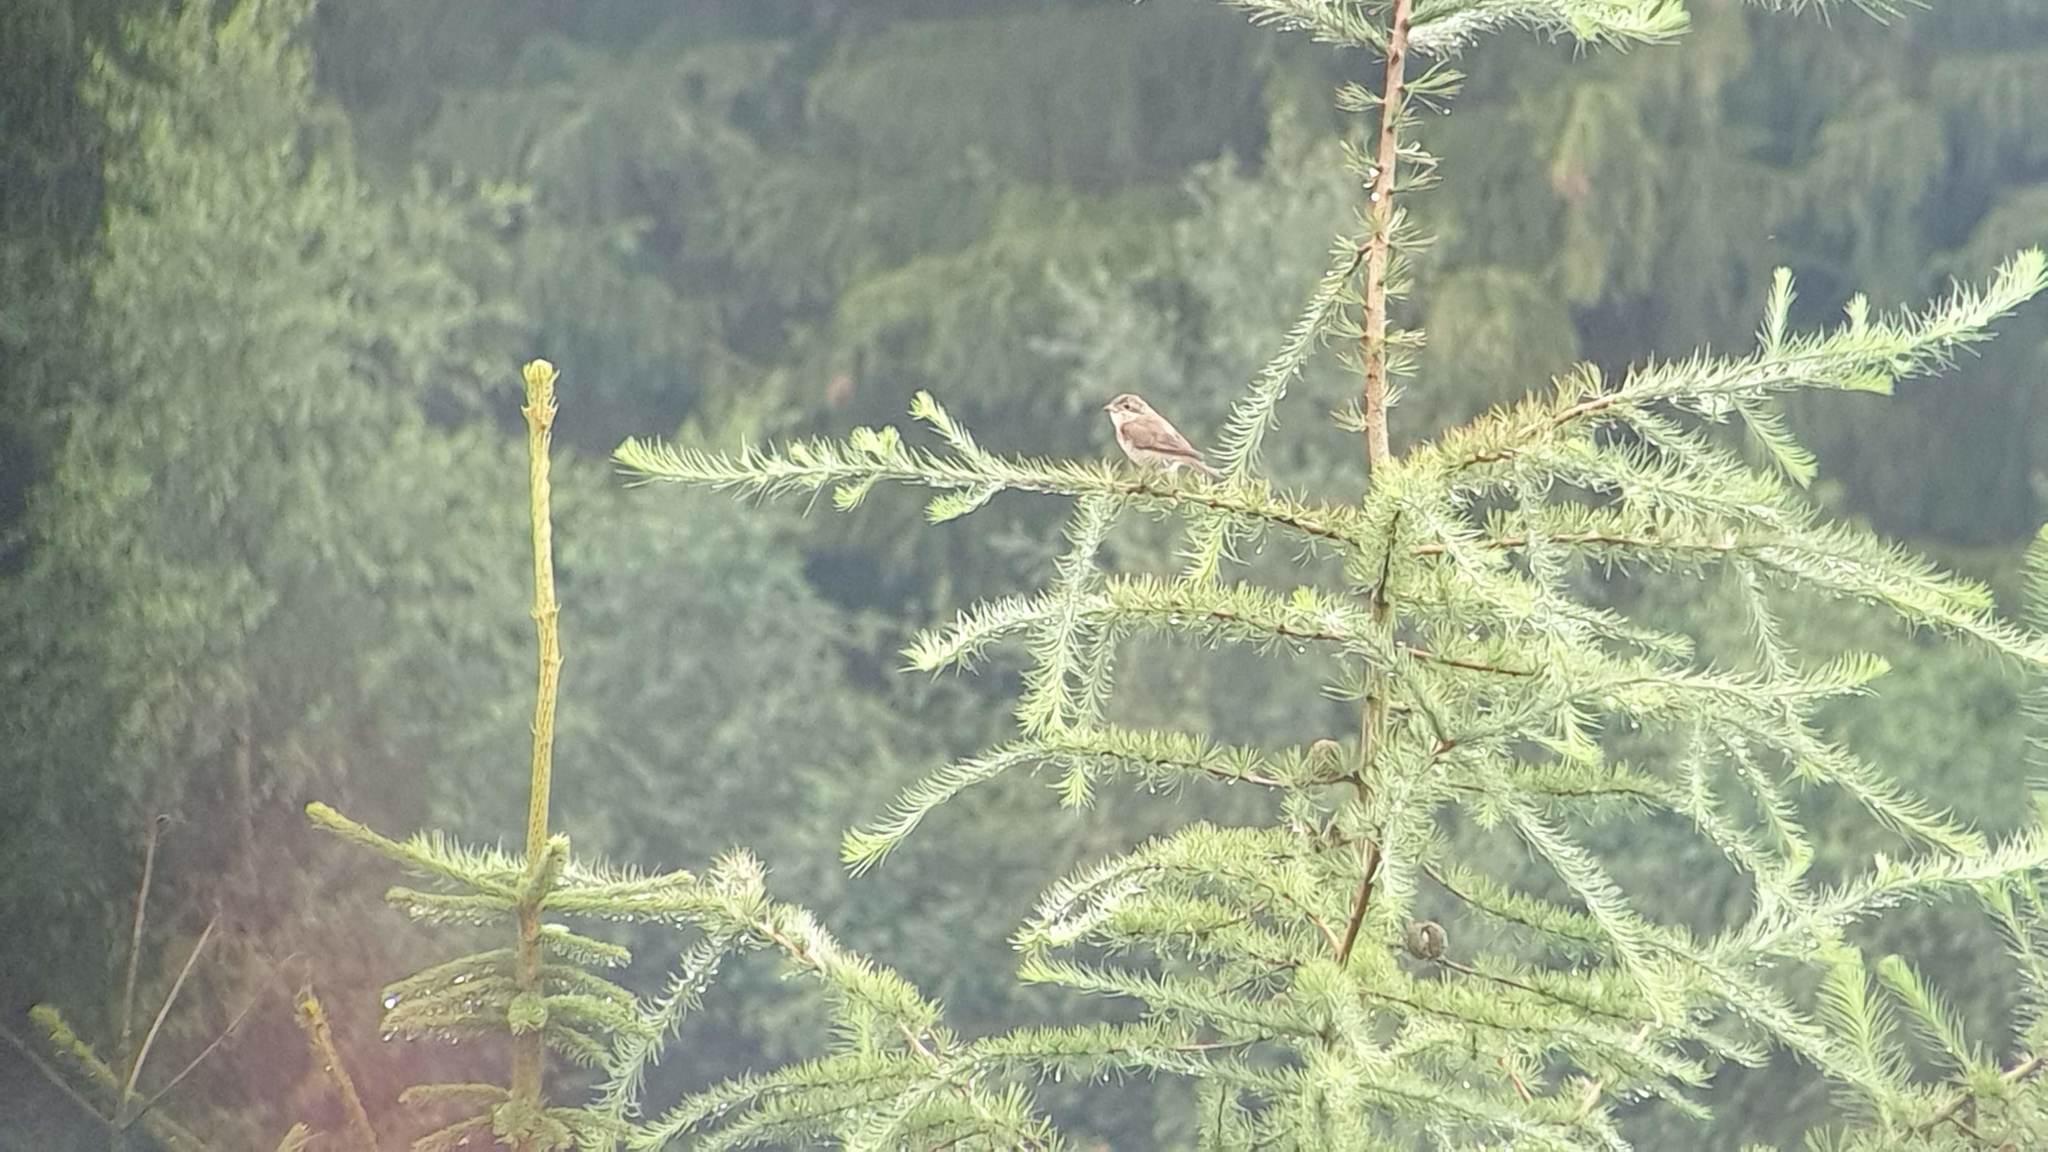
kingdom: Animalia
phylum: Chordata
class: Aves
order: Passeriformes
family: Laniidae
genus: Lanius
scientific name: Lanius collurio
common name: Red-backed shrike
